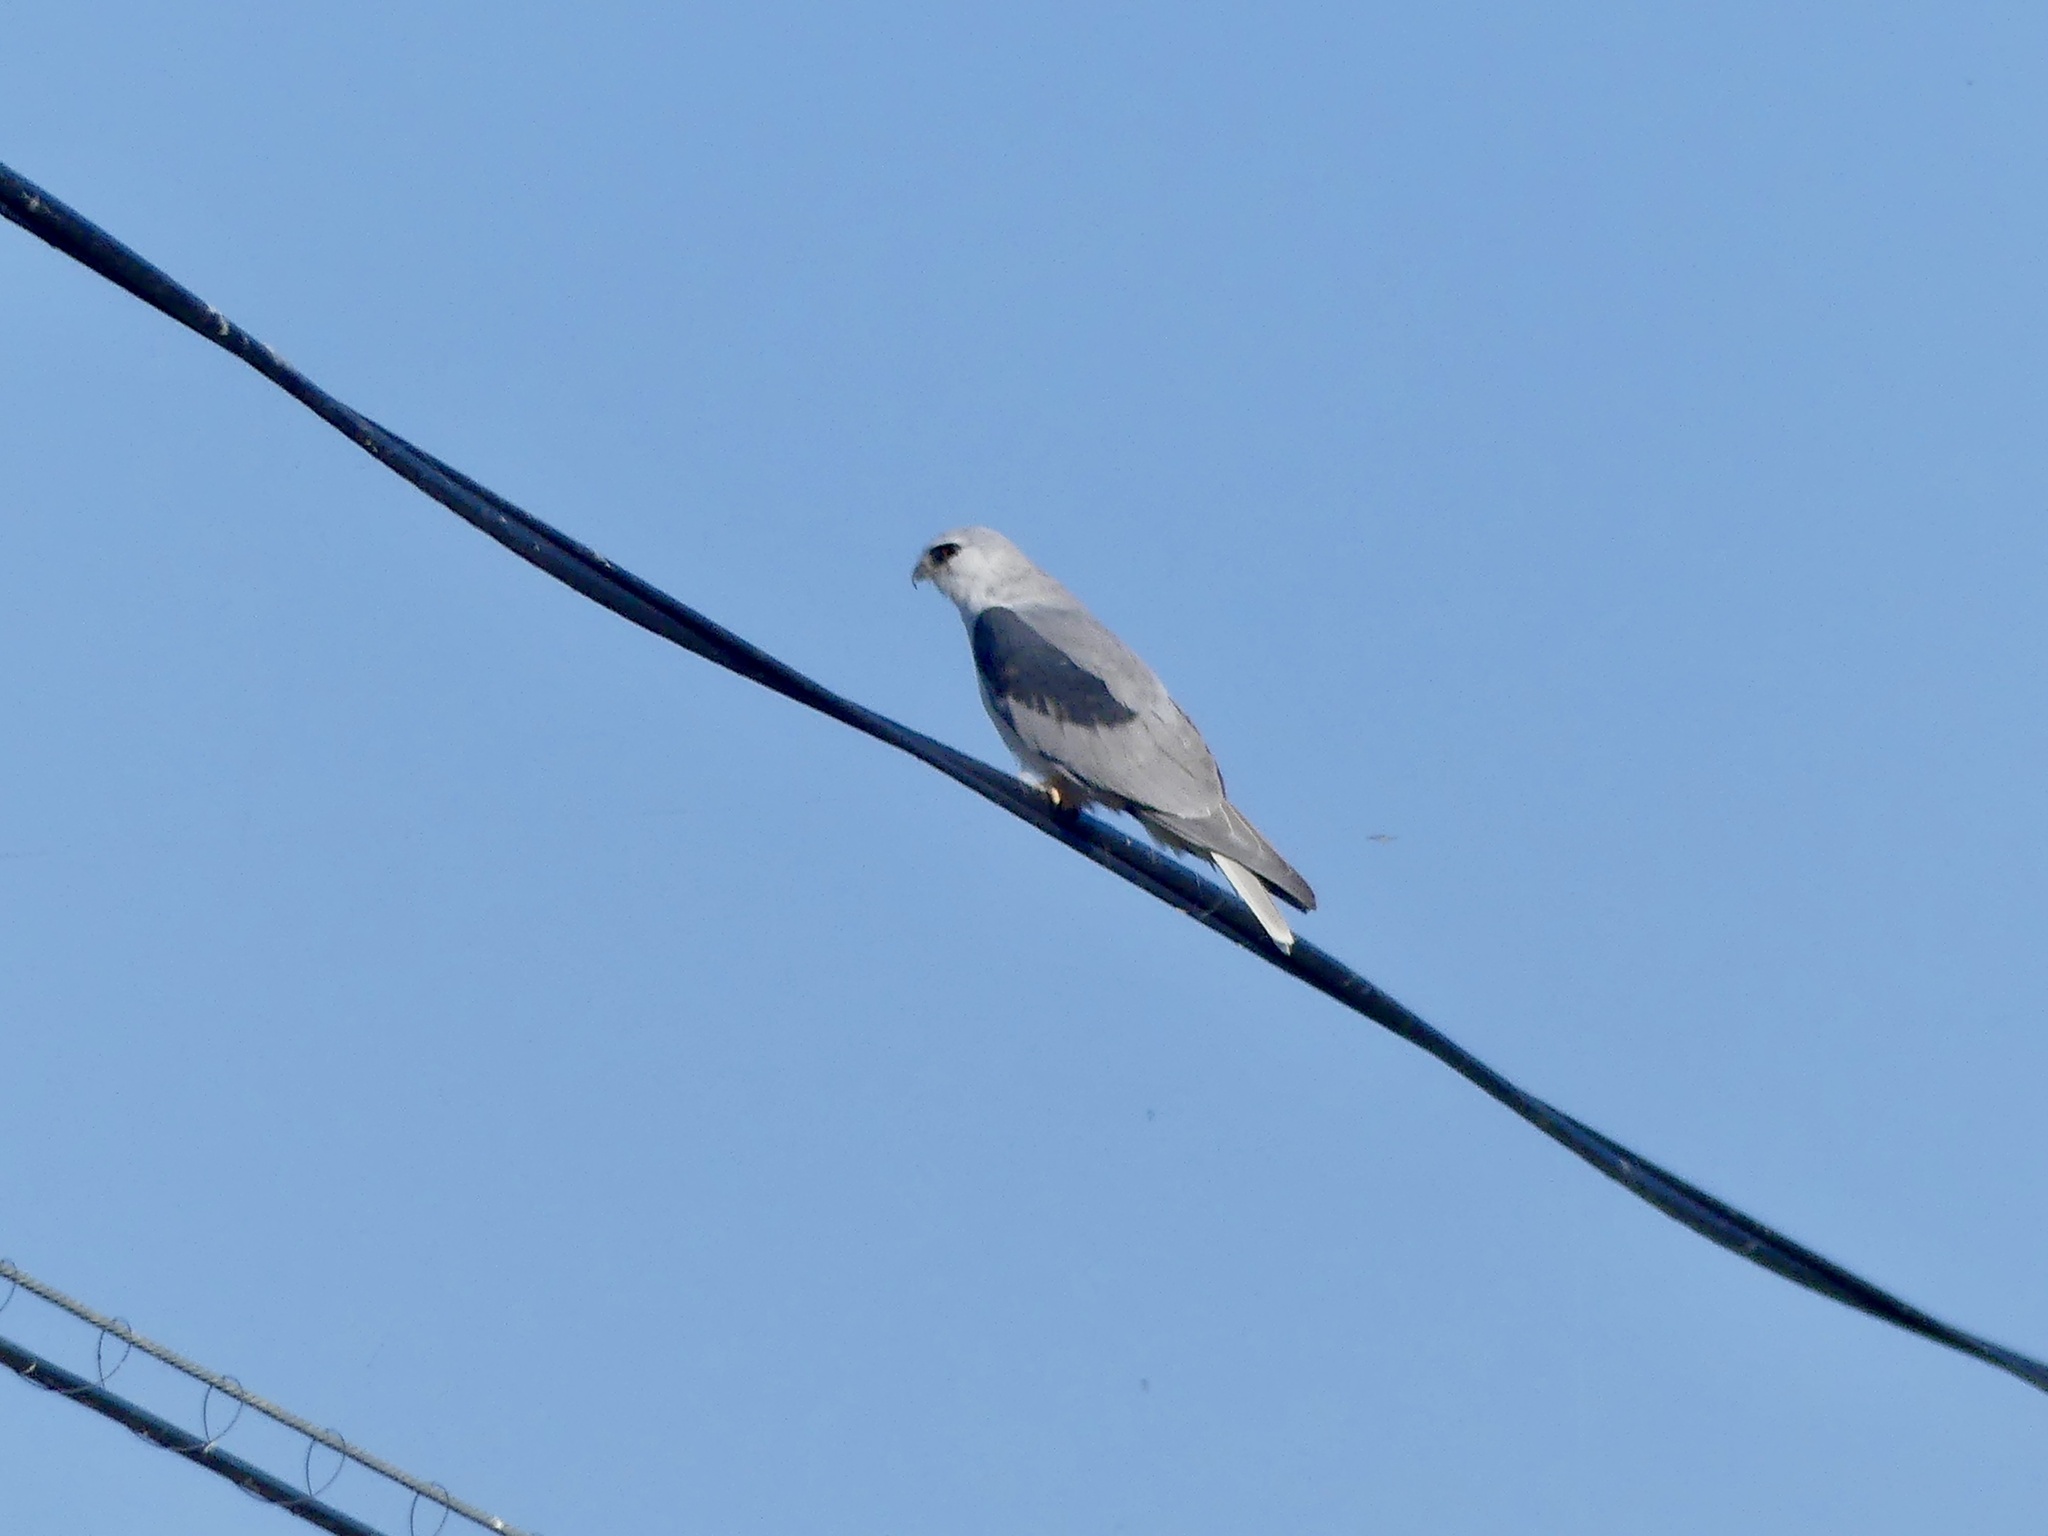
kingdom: Animalia
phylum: Chordata
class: Aves
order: Accipitriformes
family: Accipitridae
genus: Elanus
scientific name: Elanus leucurus
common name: White-tailed kite
